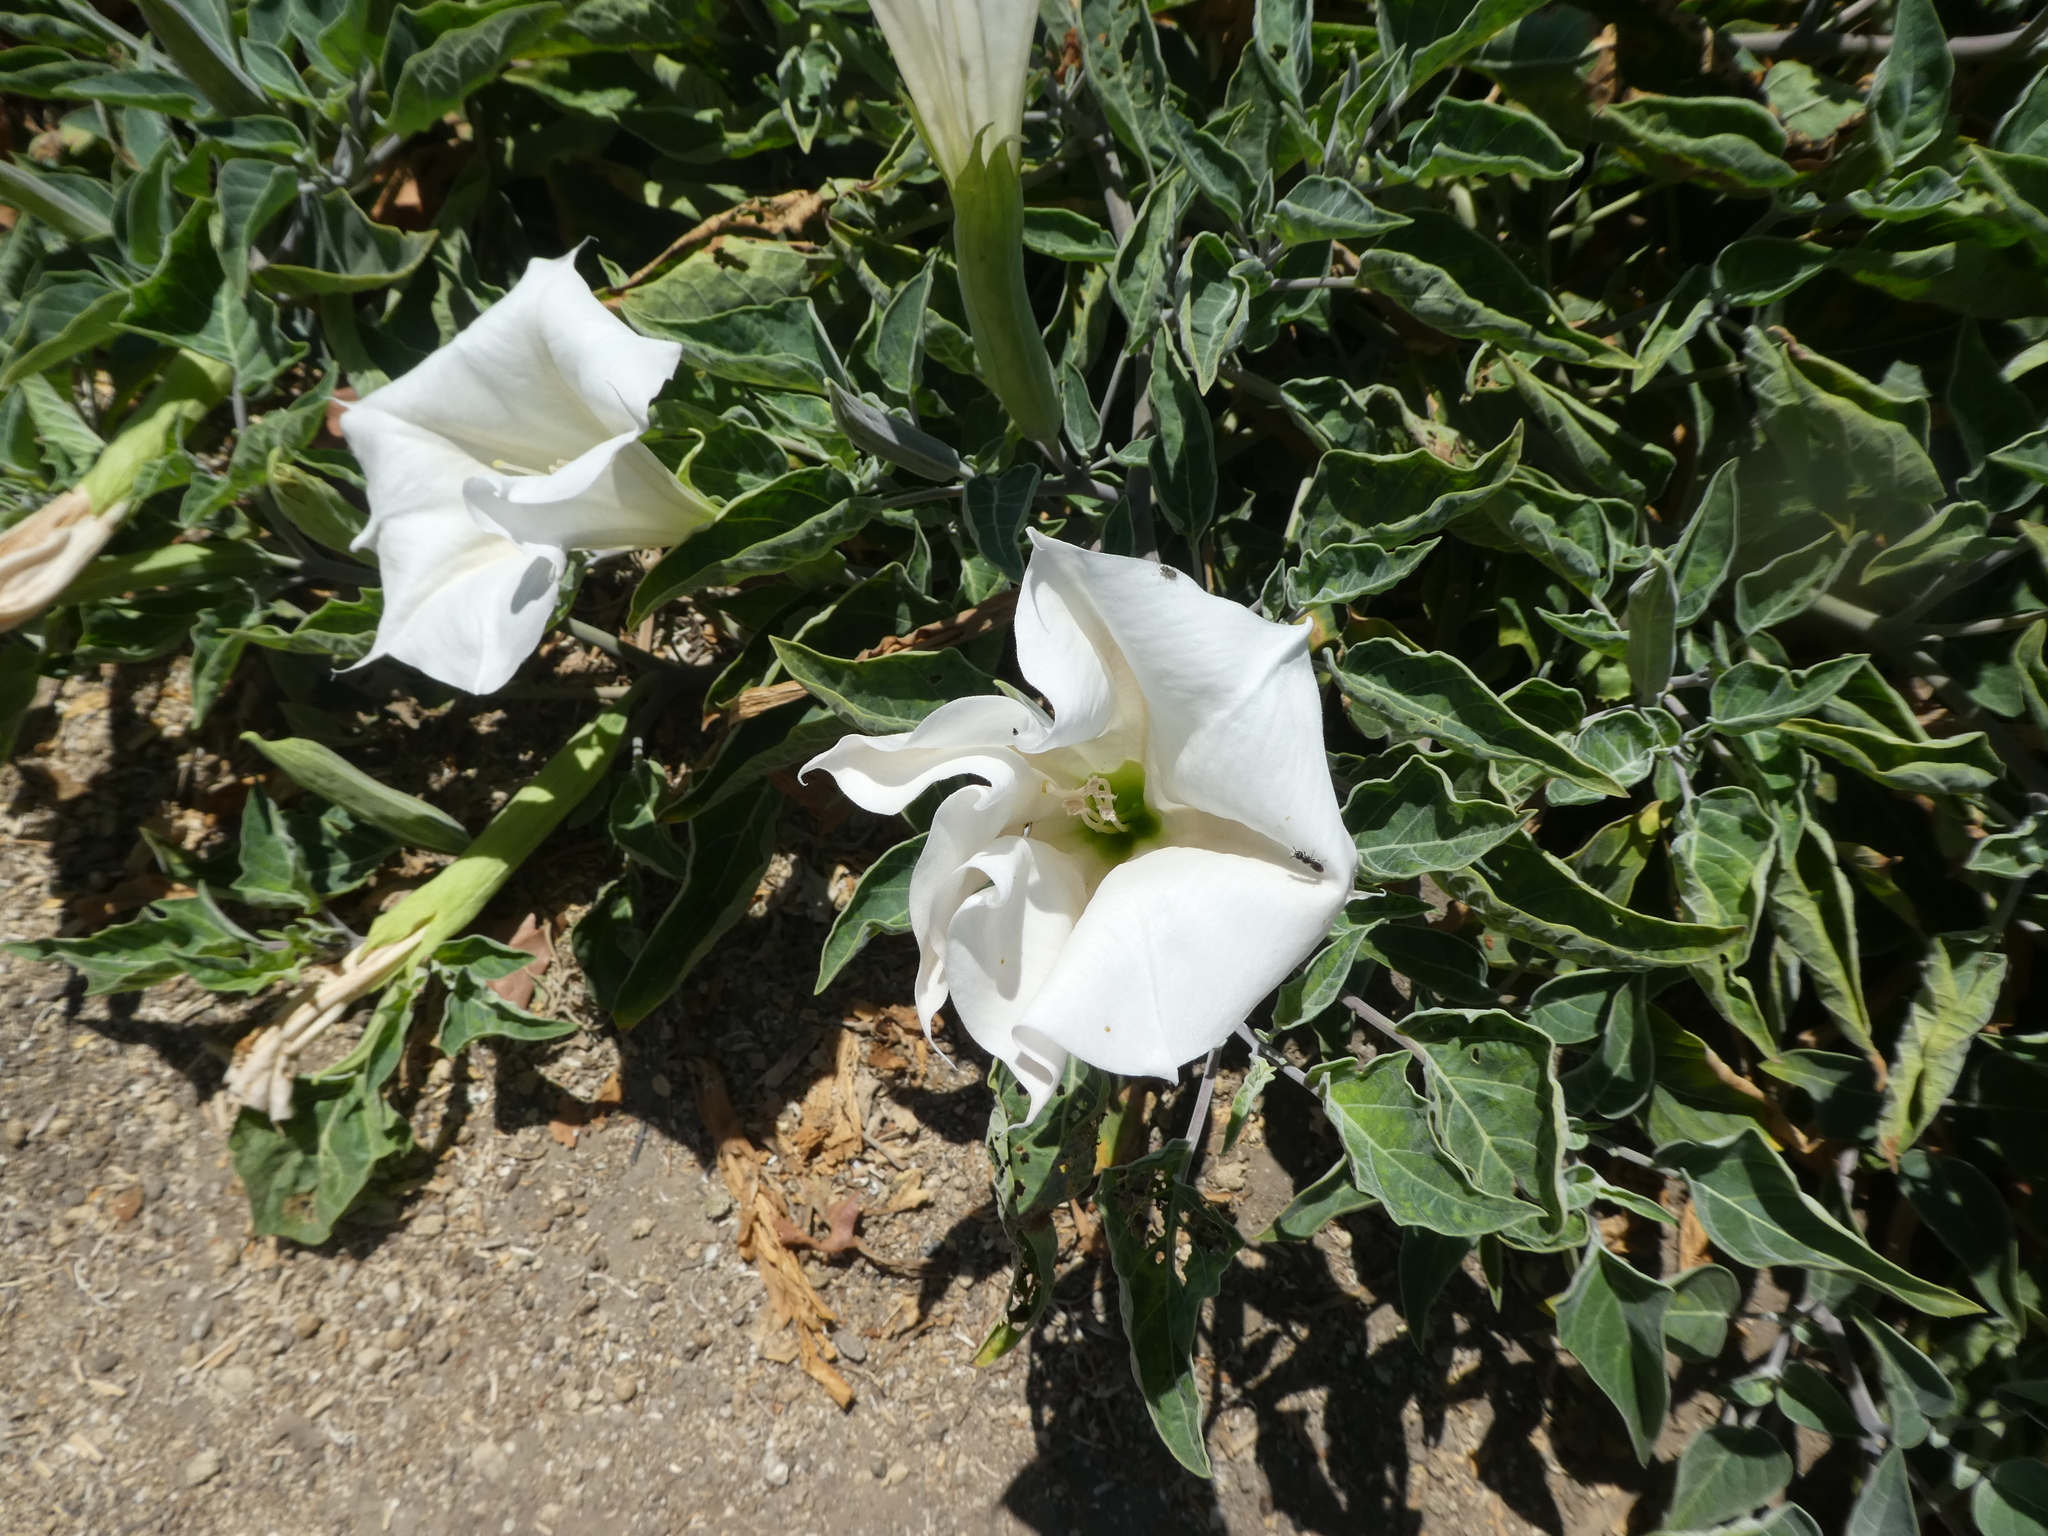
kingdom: Plantae
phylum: Tracheophyta
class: Magnoliopsida
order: Solanales
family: Solanaceae
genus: Datura
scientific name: Datura wrightii
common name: Sacred thorn-apple
